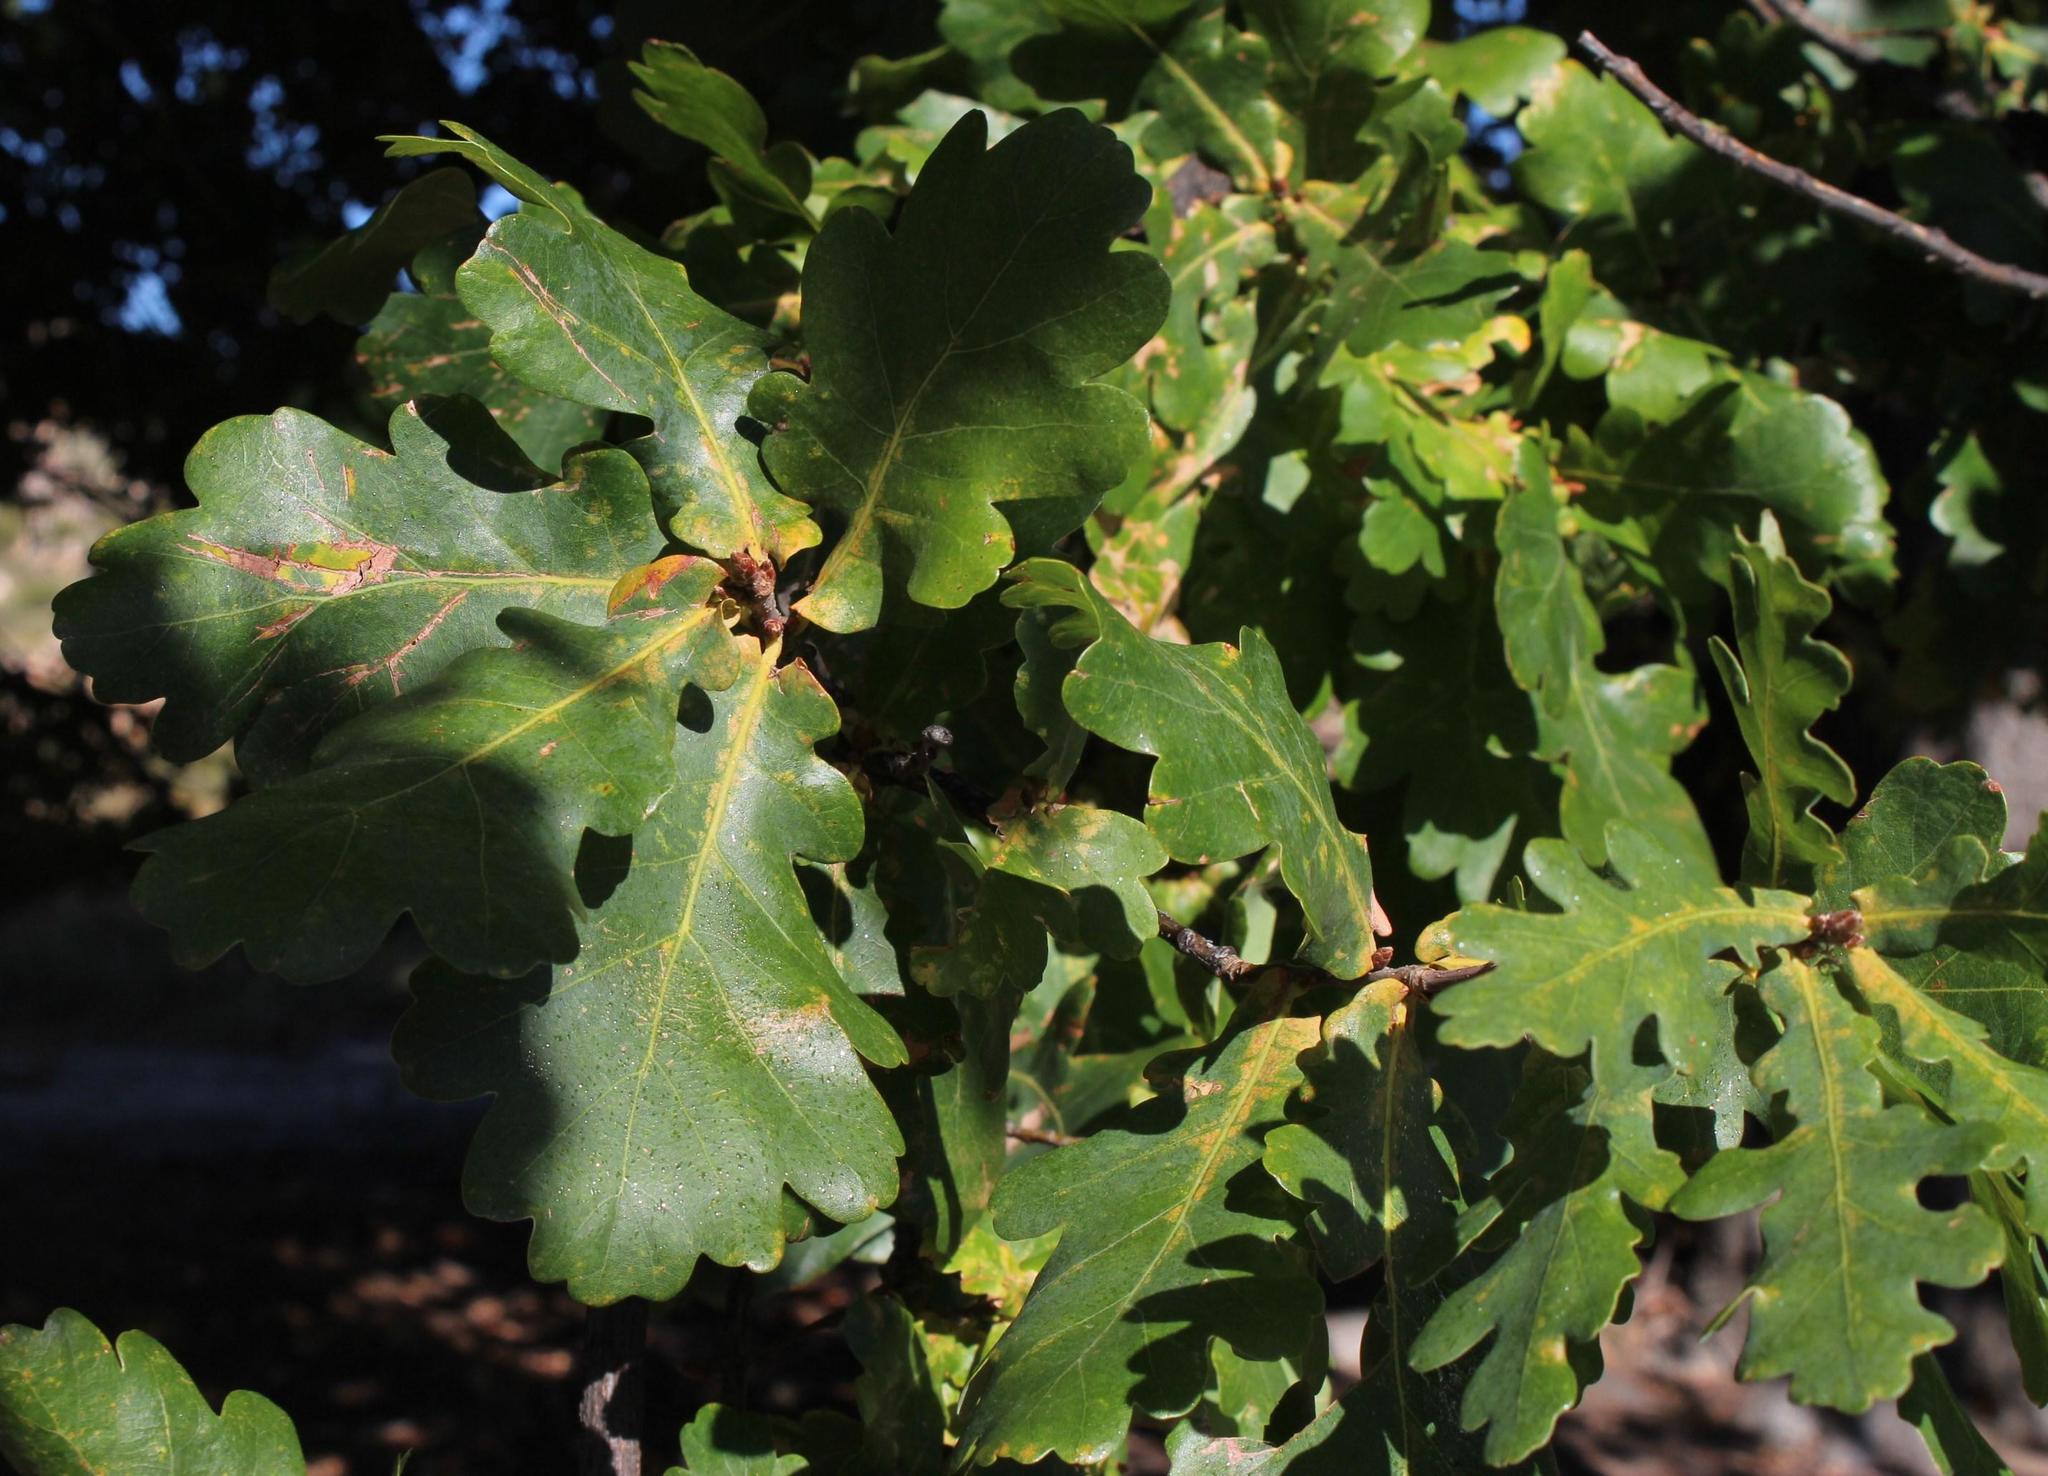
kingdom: Plantae
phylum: Tracheophyta
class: Magnoliopsida
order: Fagales
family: Fagaceae
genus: Quercus
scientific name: Quercus robur
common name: Pedunculate oak
